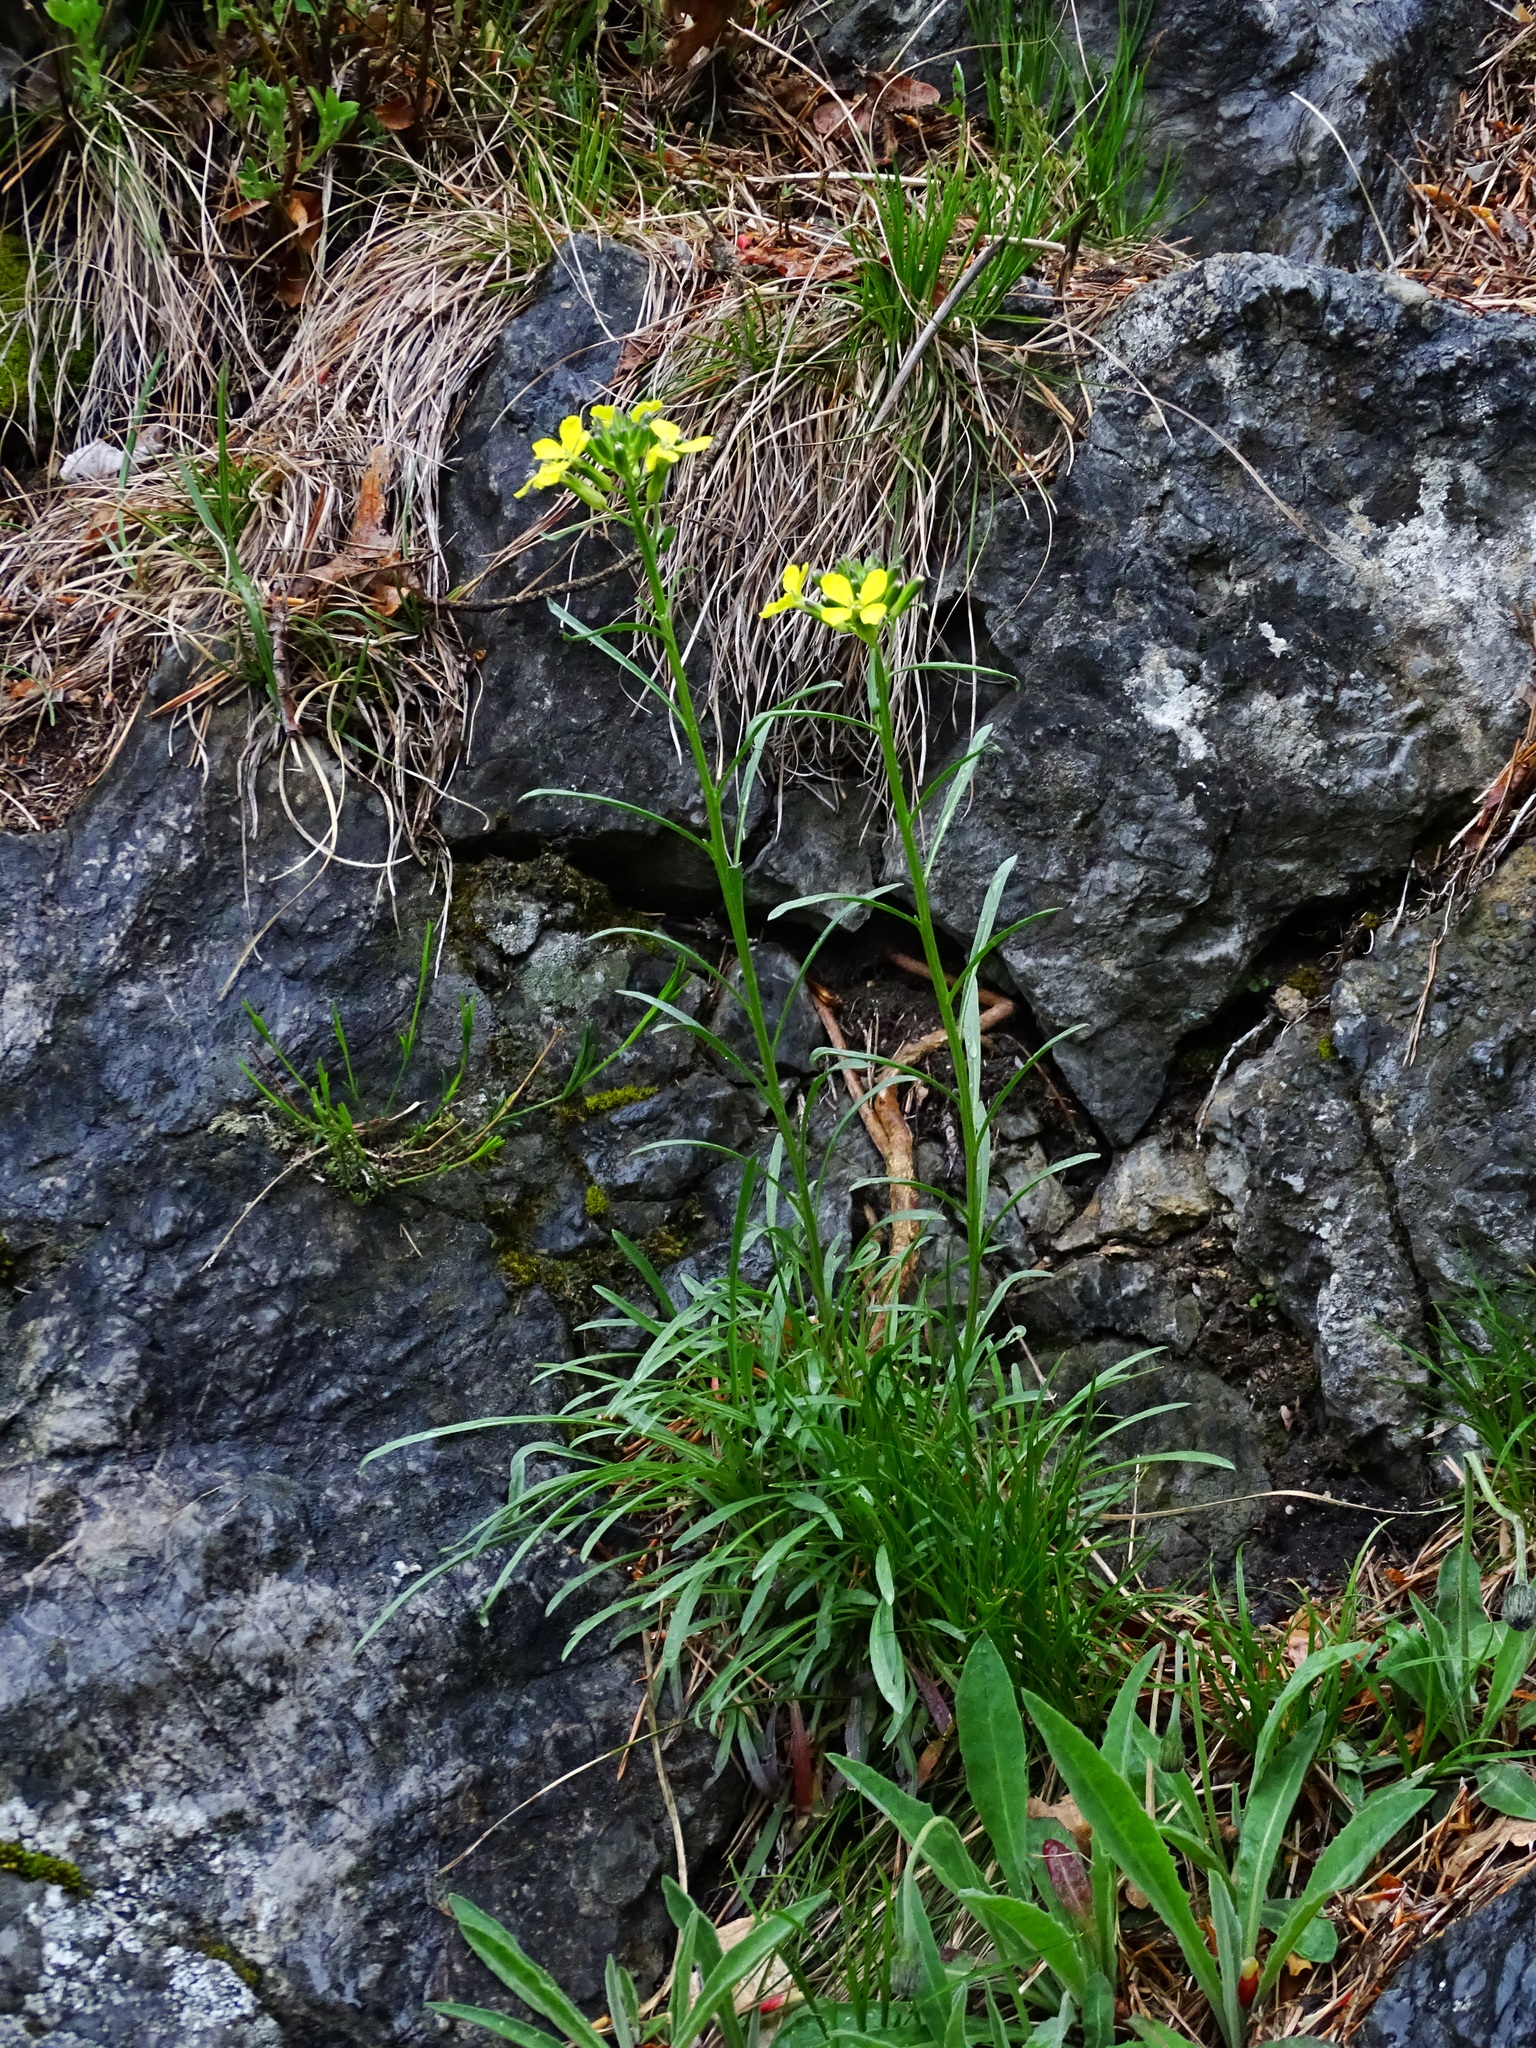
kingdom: Plantae
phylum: Tracheophyta
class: Magnoliopsida
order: Brassicales
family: Brassicaceae
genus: Erysimum
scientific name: Erysimum sylvestre
